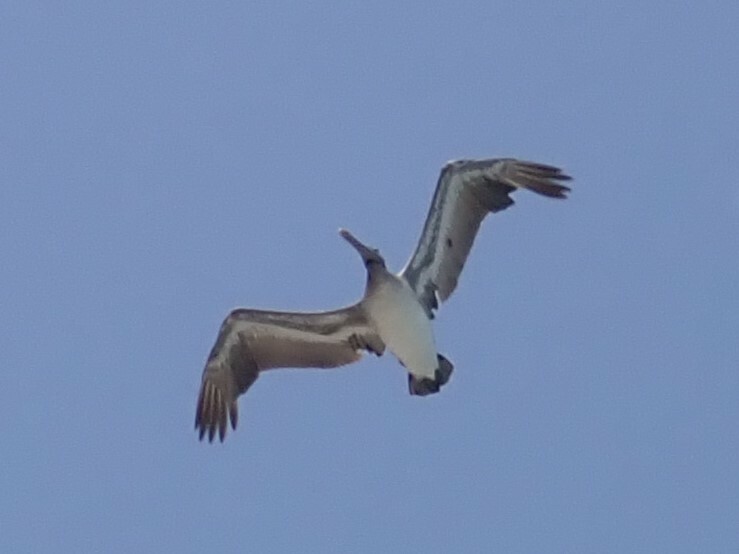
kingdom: Animalia
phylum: Chordata
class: Aves
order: Pelecaniformes
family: Pelecanidae
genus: Pelecanus
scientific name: Pelecanus occidentalis
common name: Brown pelican
